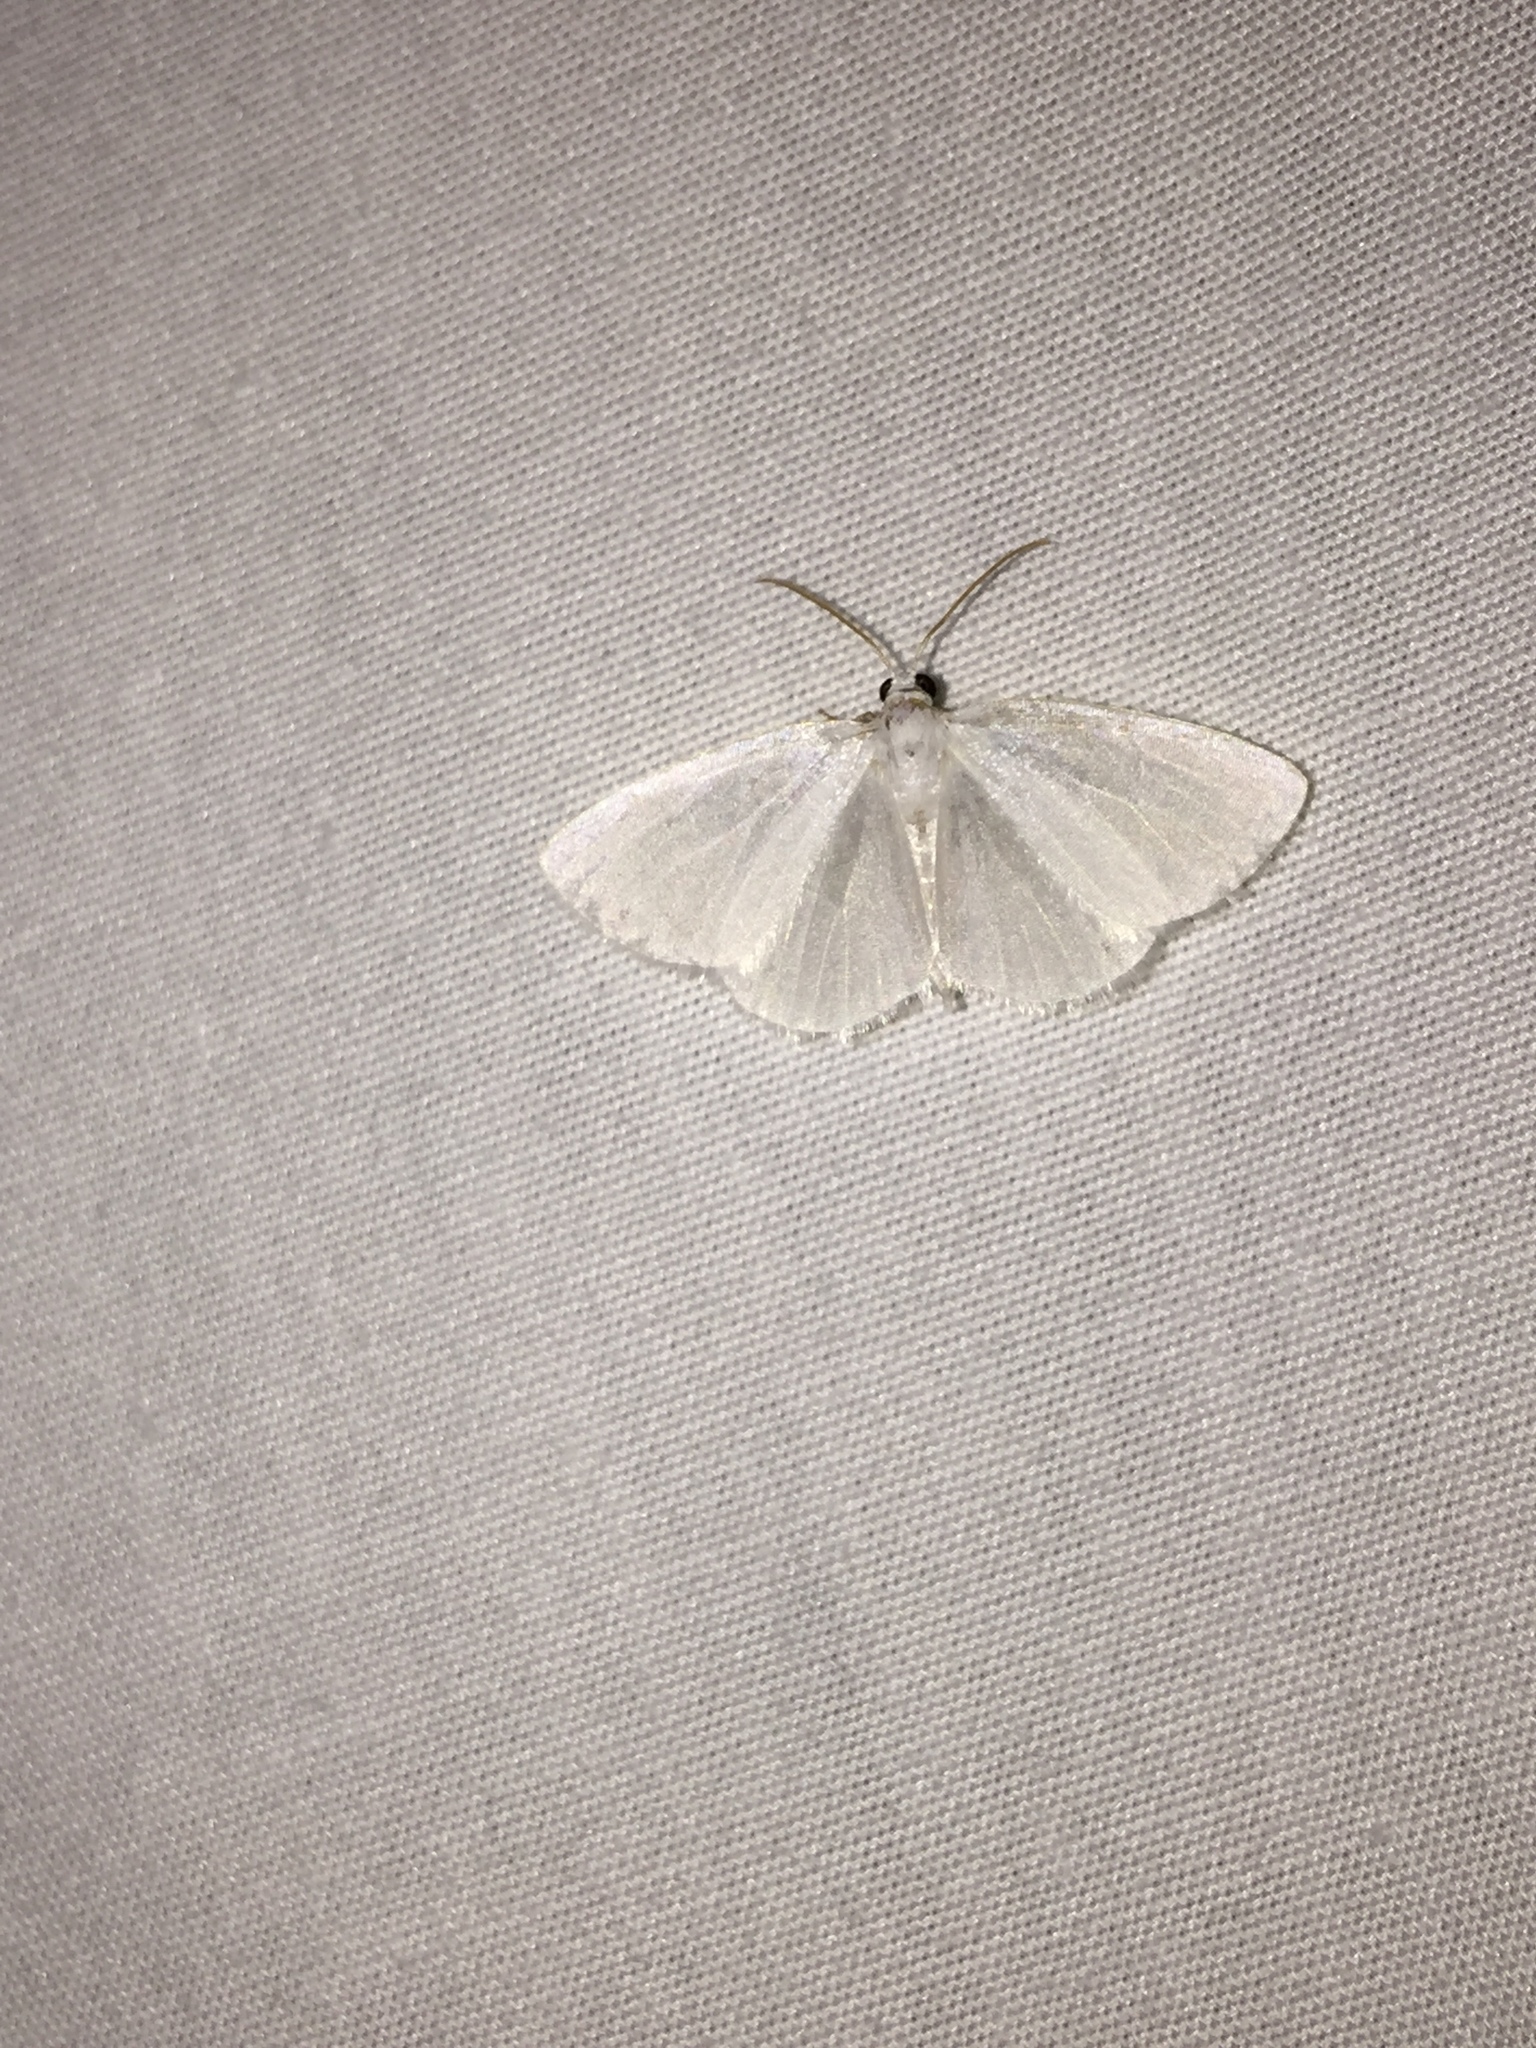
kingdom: Animalia
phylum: Arthropoda
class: Insecta
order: Lepidoptera
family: Geometridae
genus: Lomographa
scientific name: Lomographa vestaliata
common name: White spring moth
